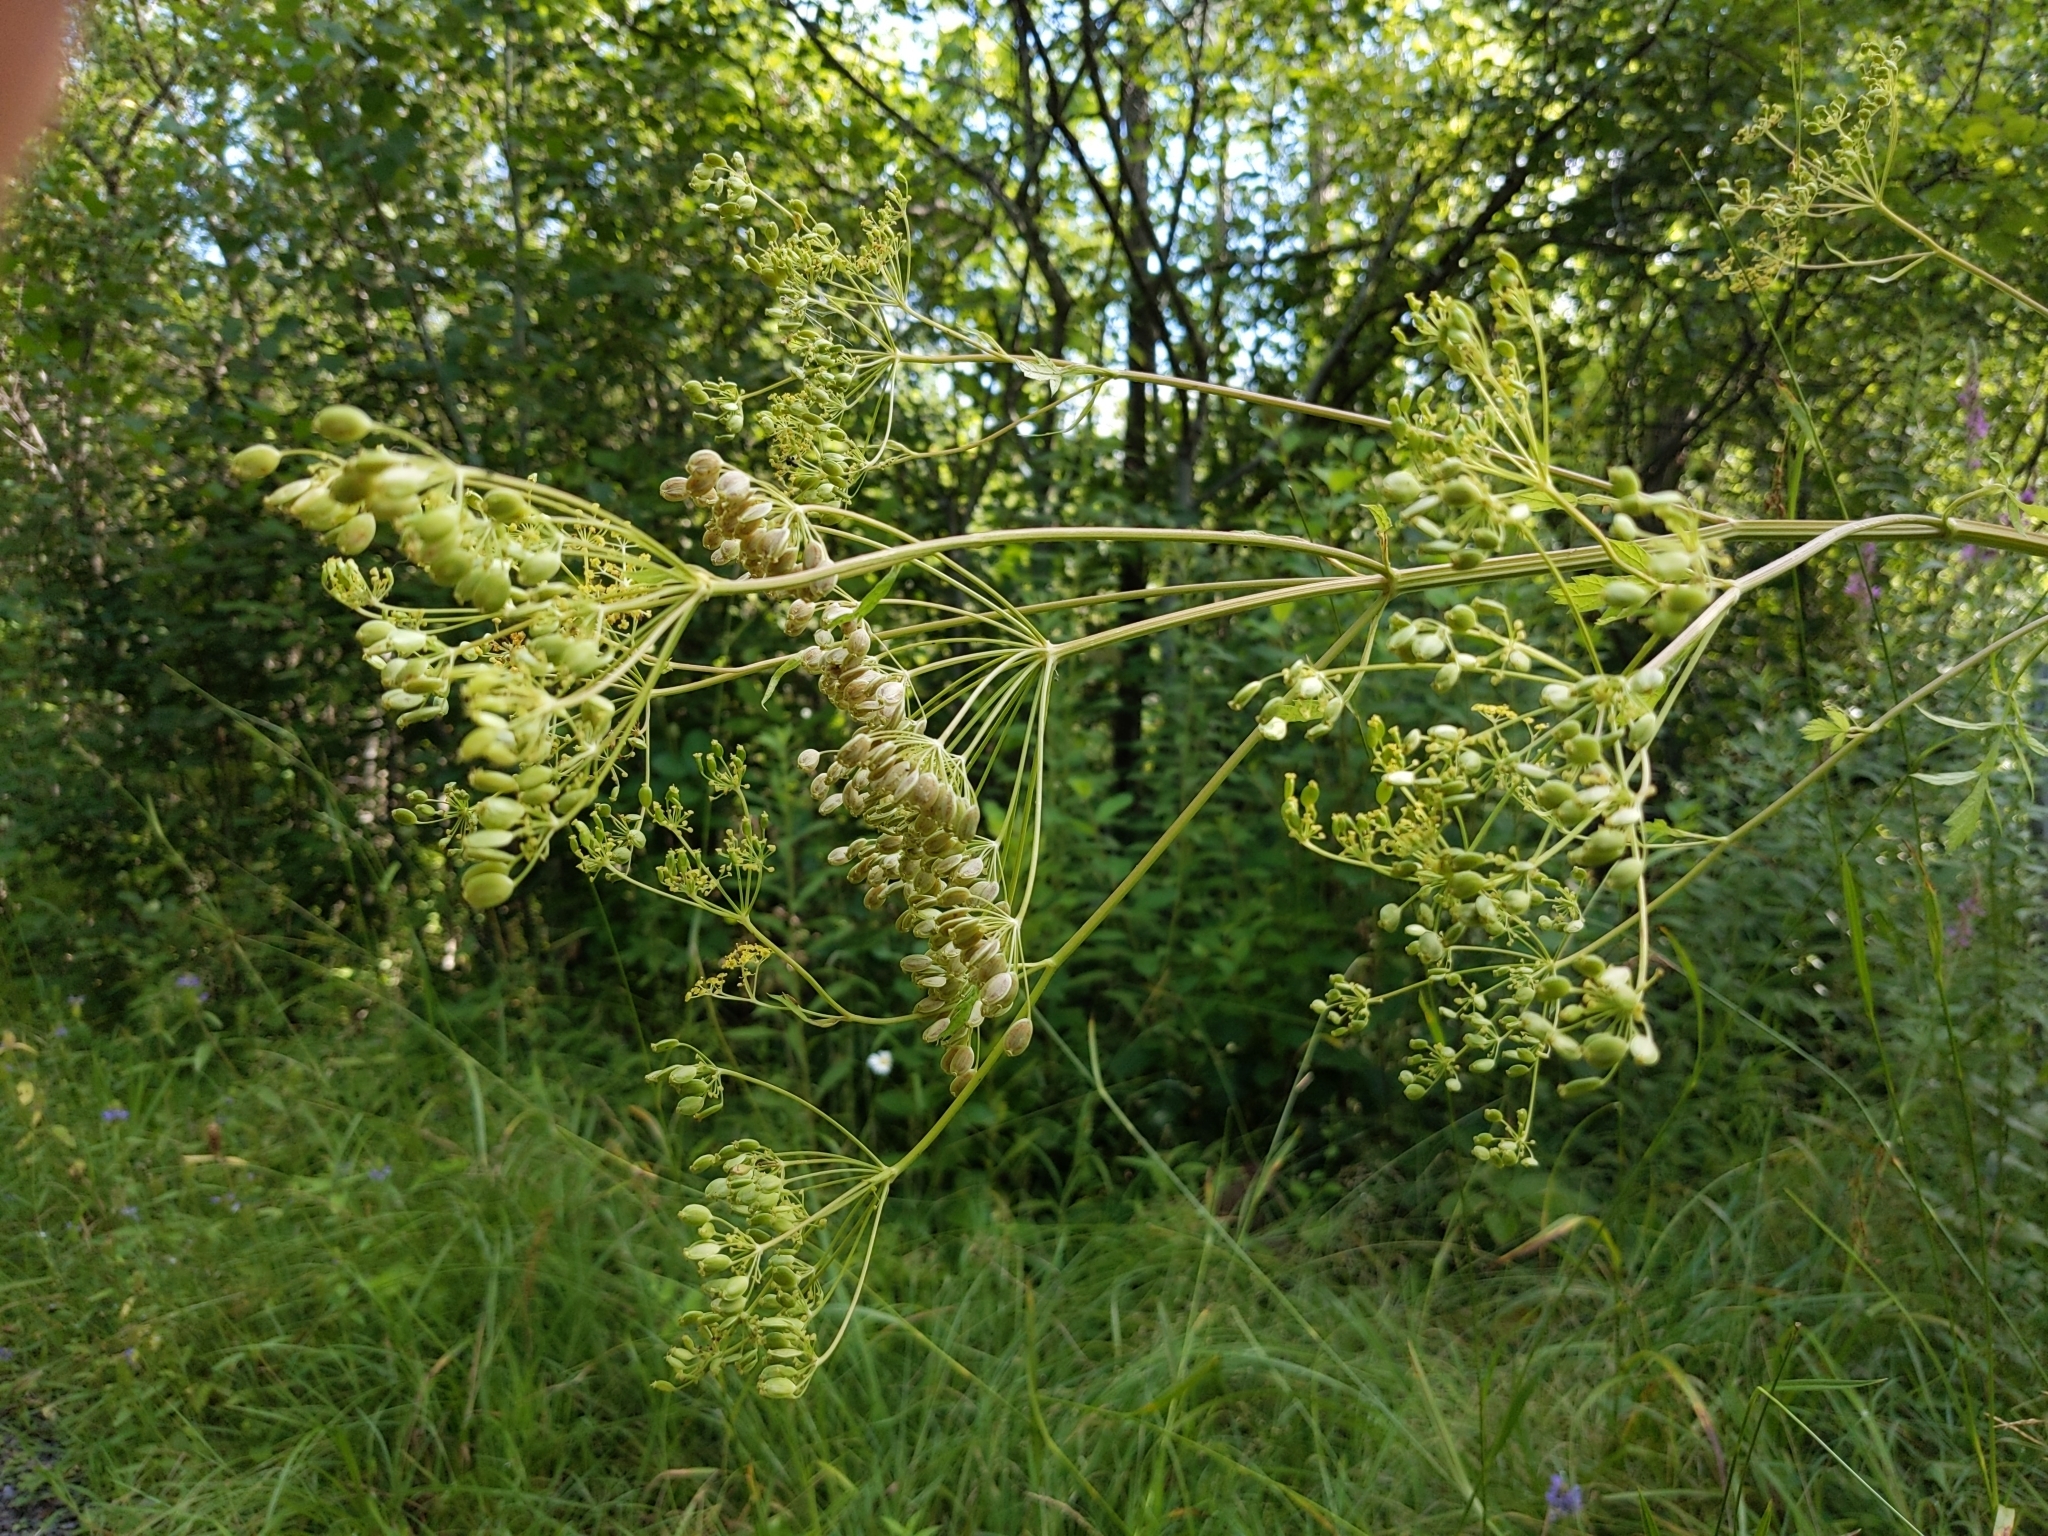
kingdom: Plantae
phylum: Tracheophyta
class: Magnoliopsida
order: Apiales
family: Apiaceae
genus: Pastinaca
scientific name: Pastinaca sativa
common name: Wild parsnip
